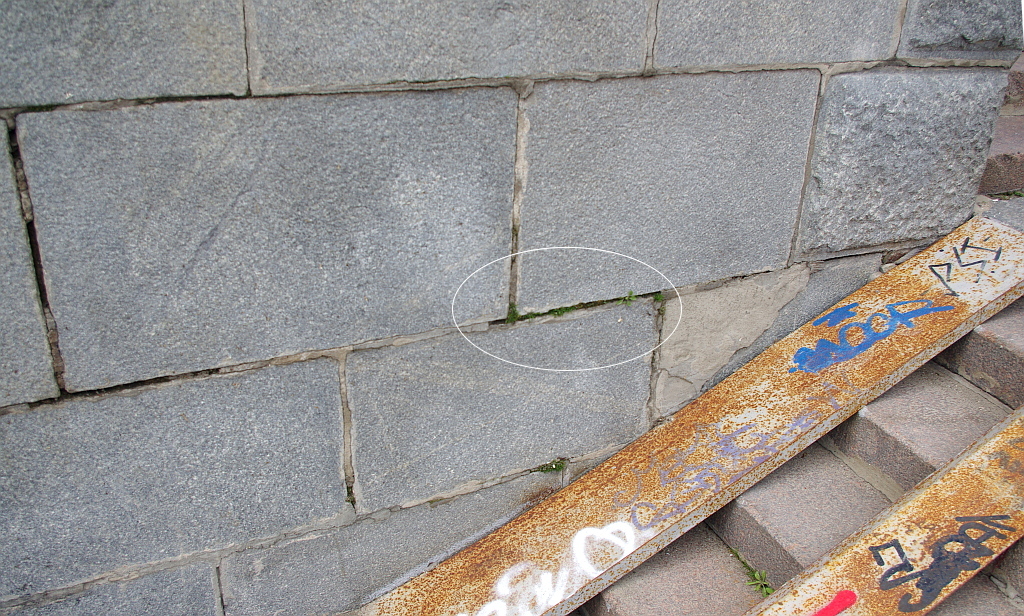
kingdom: Plantae
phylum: Tracheophyta
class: Magnoliopsida
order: Caryophyllales
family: Caryophyllaceae
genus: Sagina
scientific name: Sagina procumbens
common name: Procumbent pearlwort
